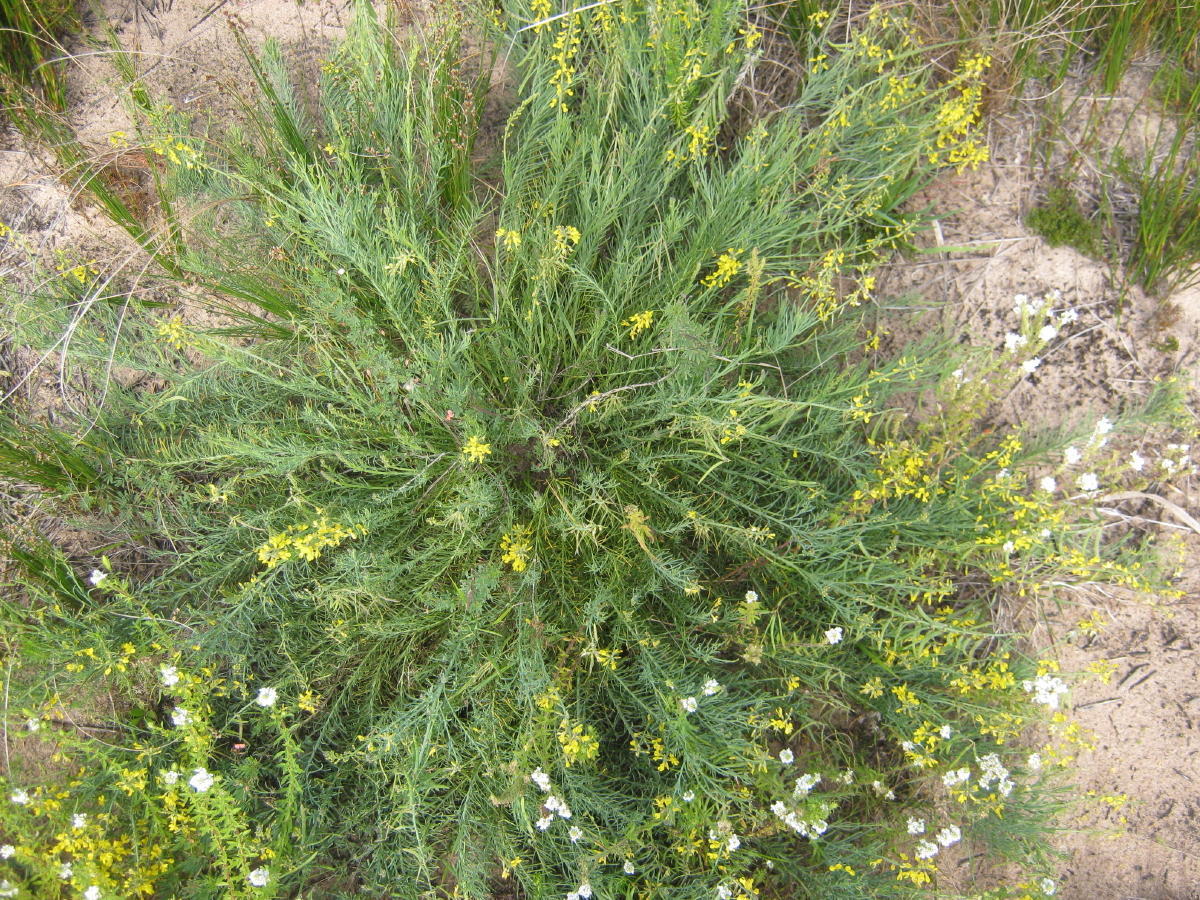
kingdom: Plantae
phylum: Tracheophyta
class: Magnoliopsida
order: Fabales
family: Fabaceae
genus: Lebeckia
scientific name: Lebeckia gracilis
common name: Slender ganna
